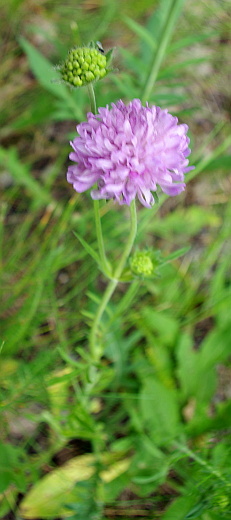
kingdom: Plantae
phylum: Tracheophyta
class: Magnoliopsida
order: Dipsacales
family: Caprifoliaceae
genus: Knautia
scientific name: Knautia arvensis
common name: Field scabiosa
